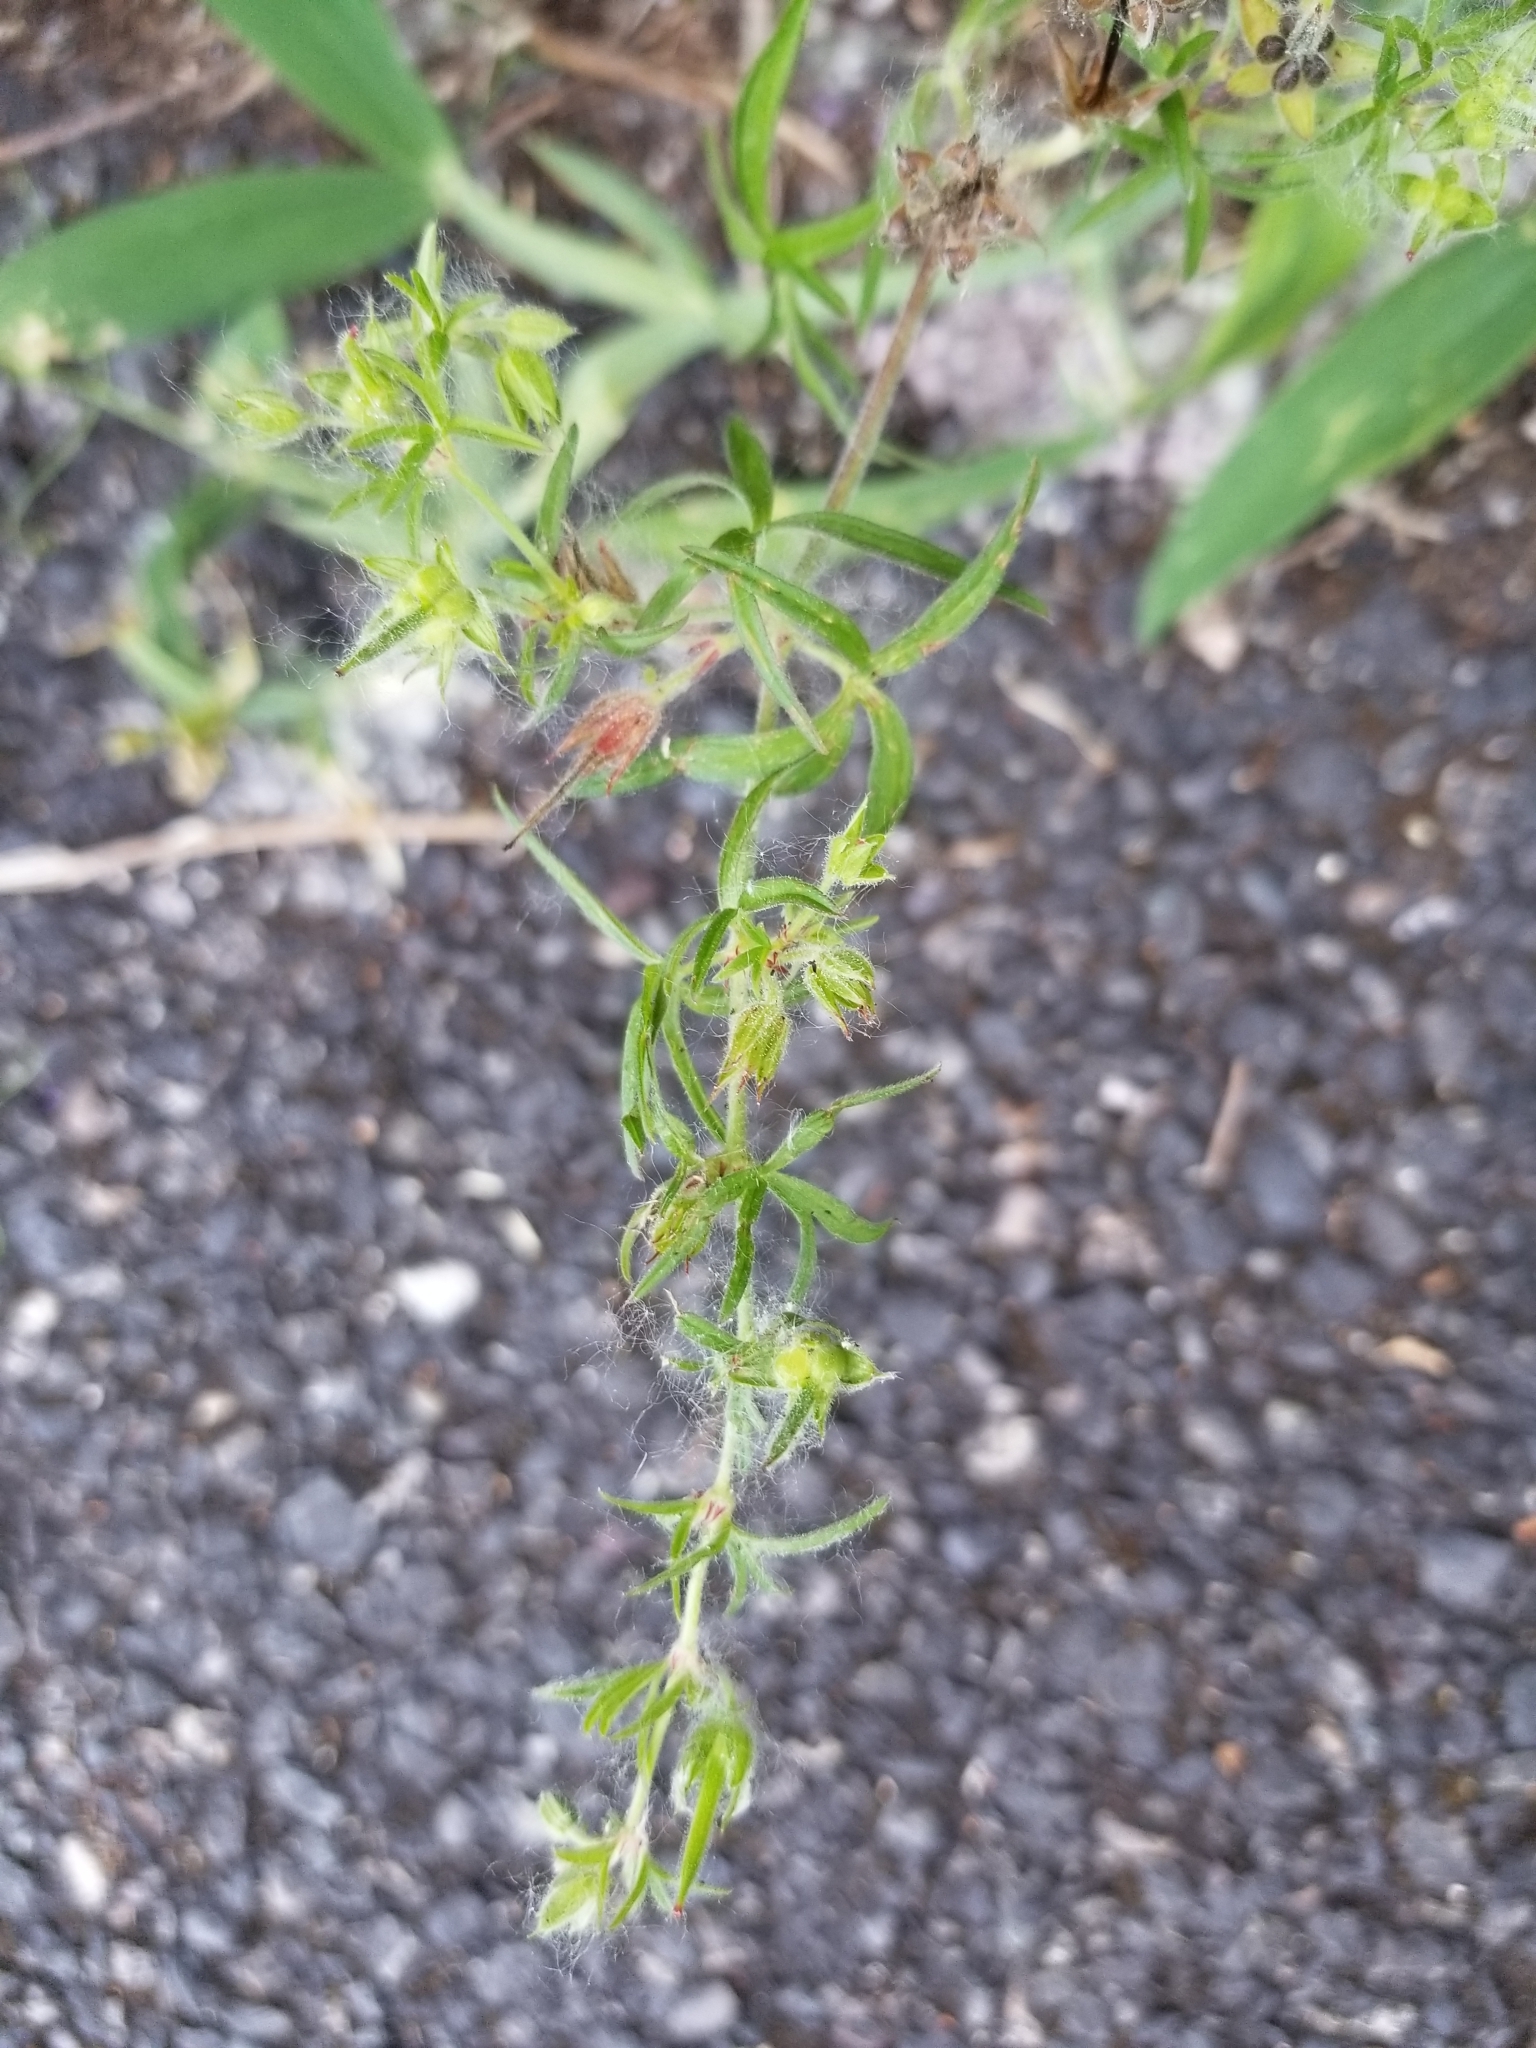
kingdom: Plantae
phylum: Tracheophyta
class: Magnoliopsida
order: Geraniales
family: Geraniaceae
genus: Geranium
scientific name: Geranium dissectum
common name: Cut-leaved crane's-bill
